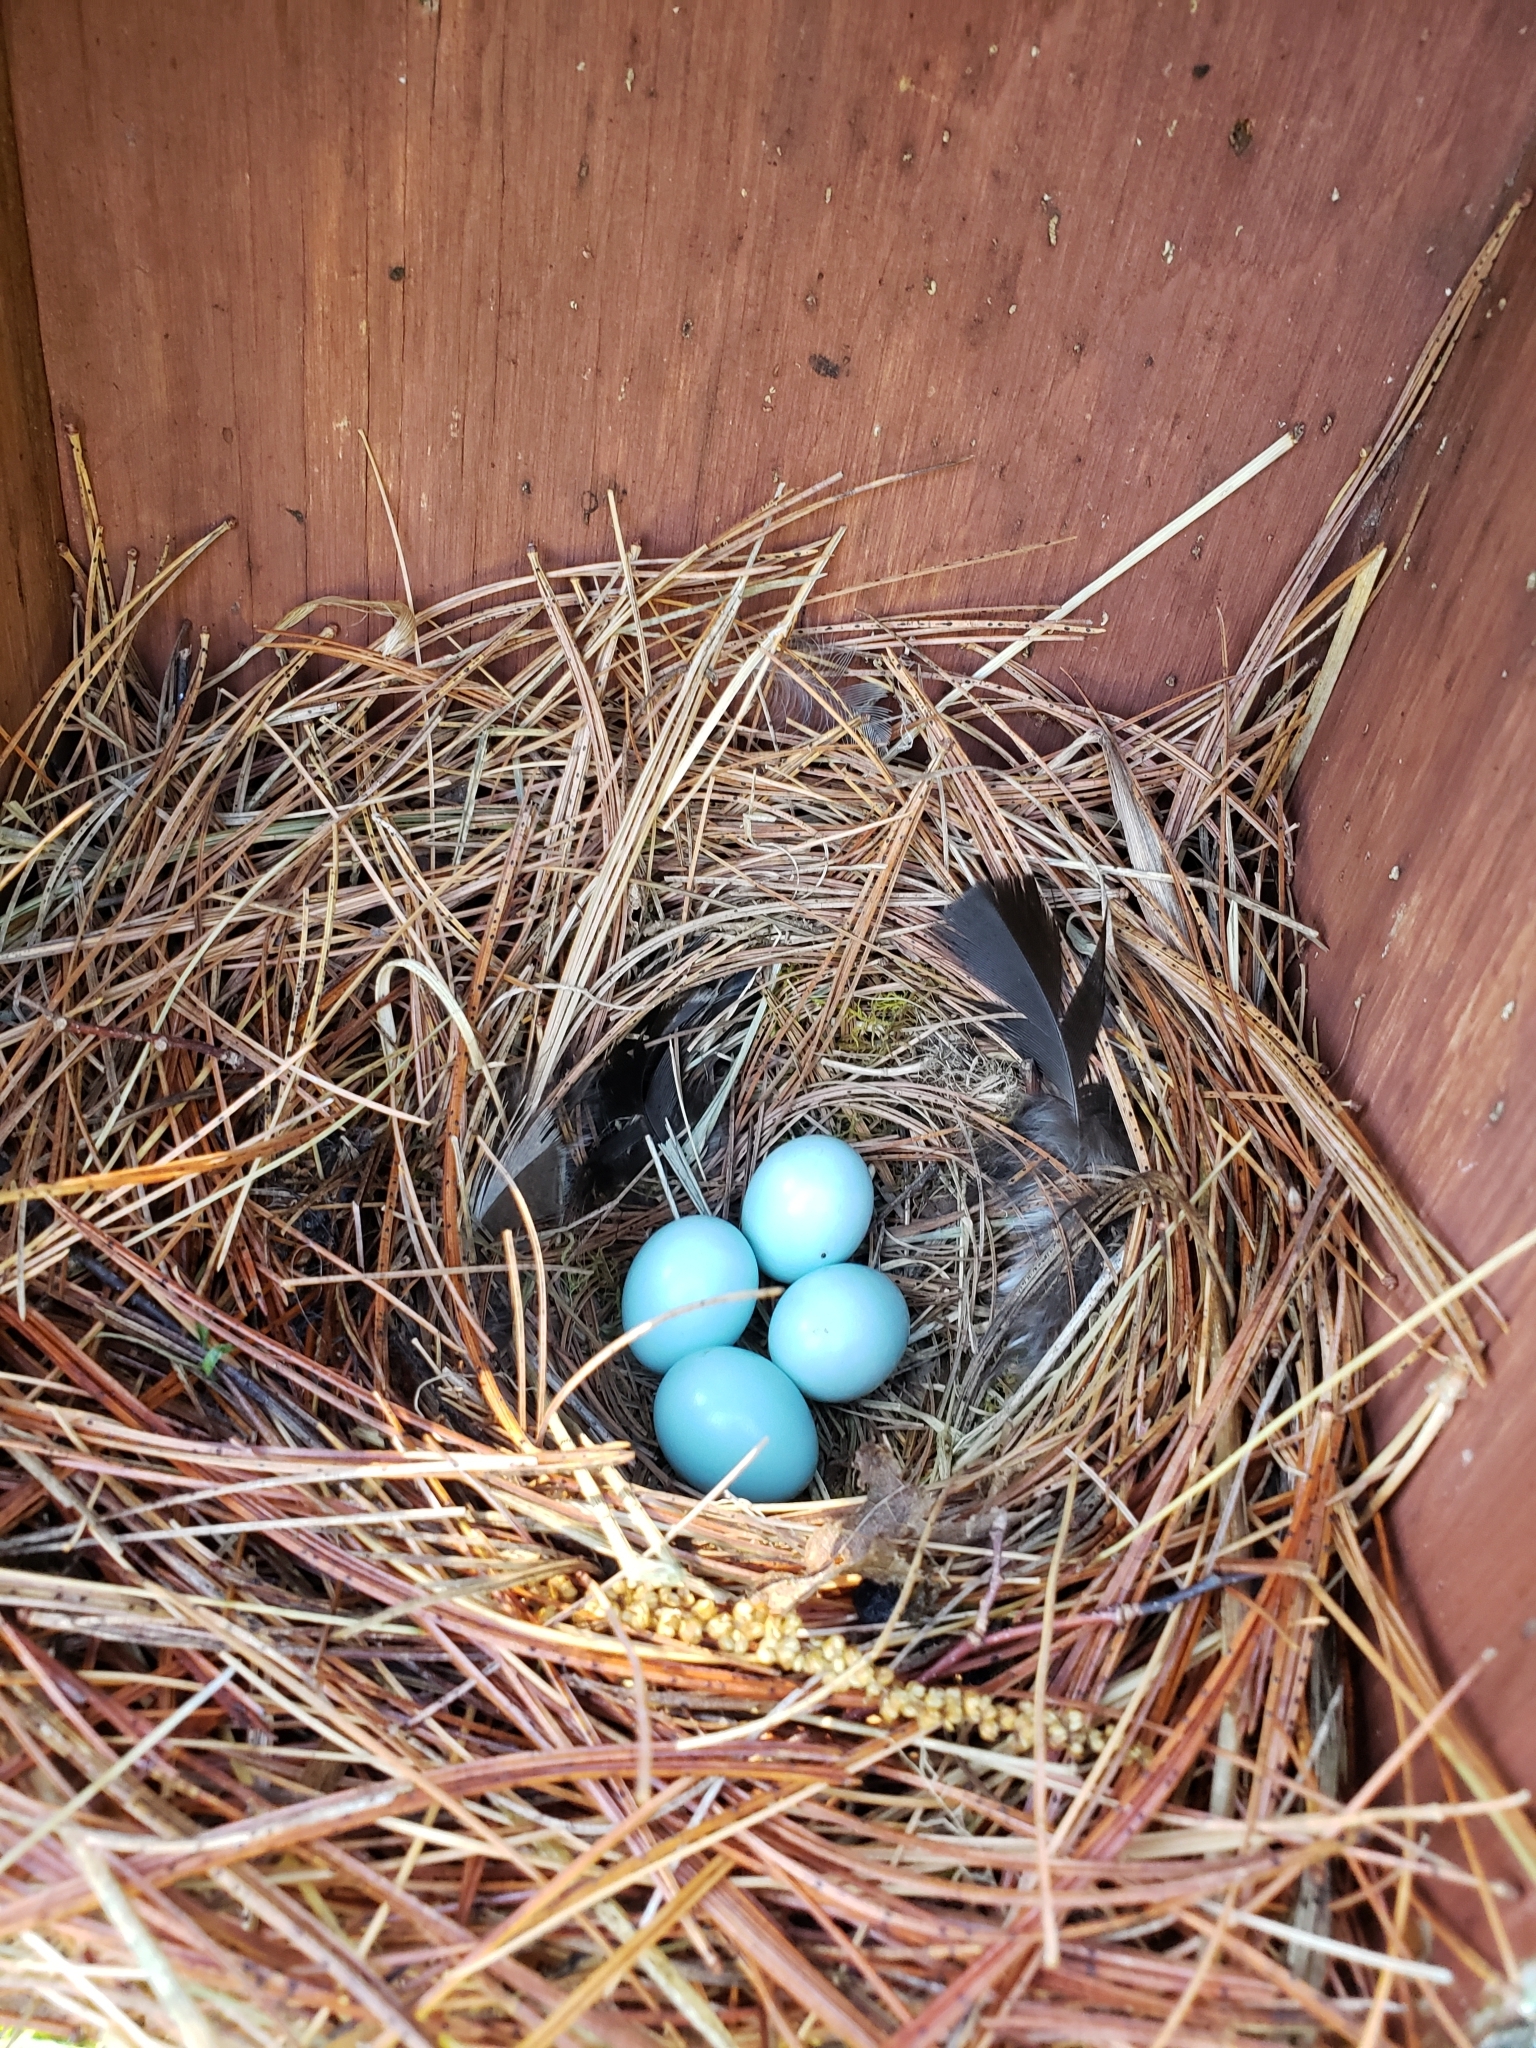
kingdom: Animalia
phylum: Chordata
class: Aves
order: Passeriformes
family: Turdidae
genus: Sialia
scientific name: Sialia sialis
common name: Eastern bluebird
